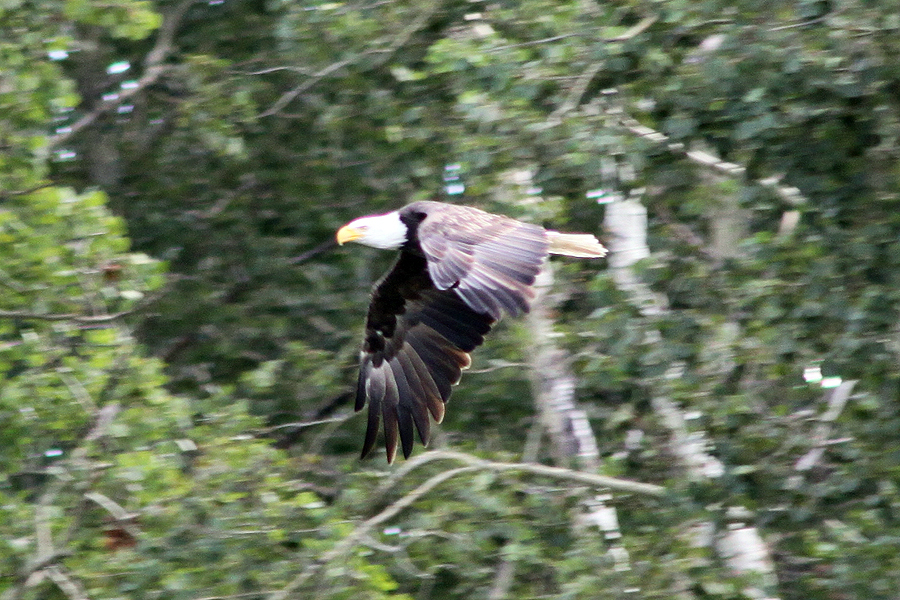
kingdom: Animalia
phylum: Chordata
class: Aves
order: Accipitriformes
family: Accipitridae
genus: Haliaeetus
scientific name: Haliaeetus leucocephalus
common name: Bald eagle
